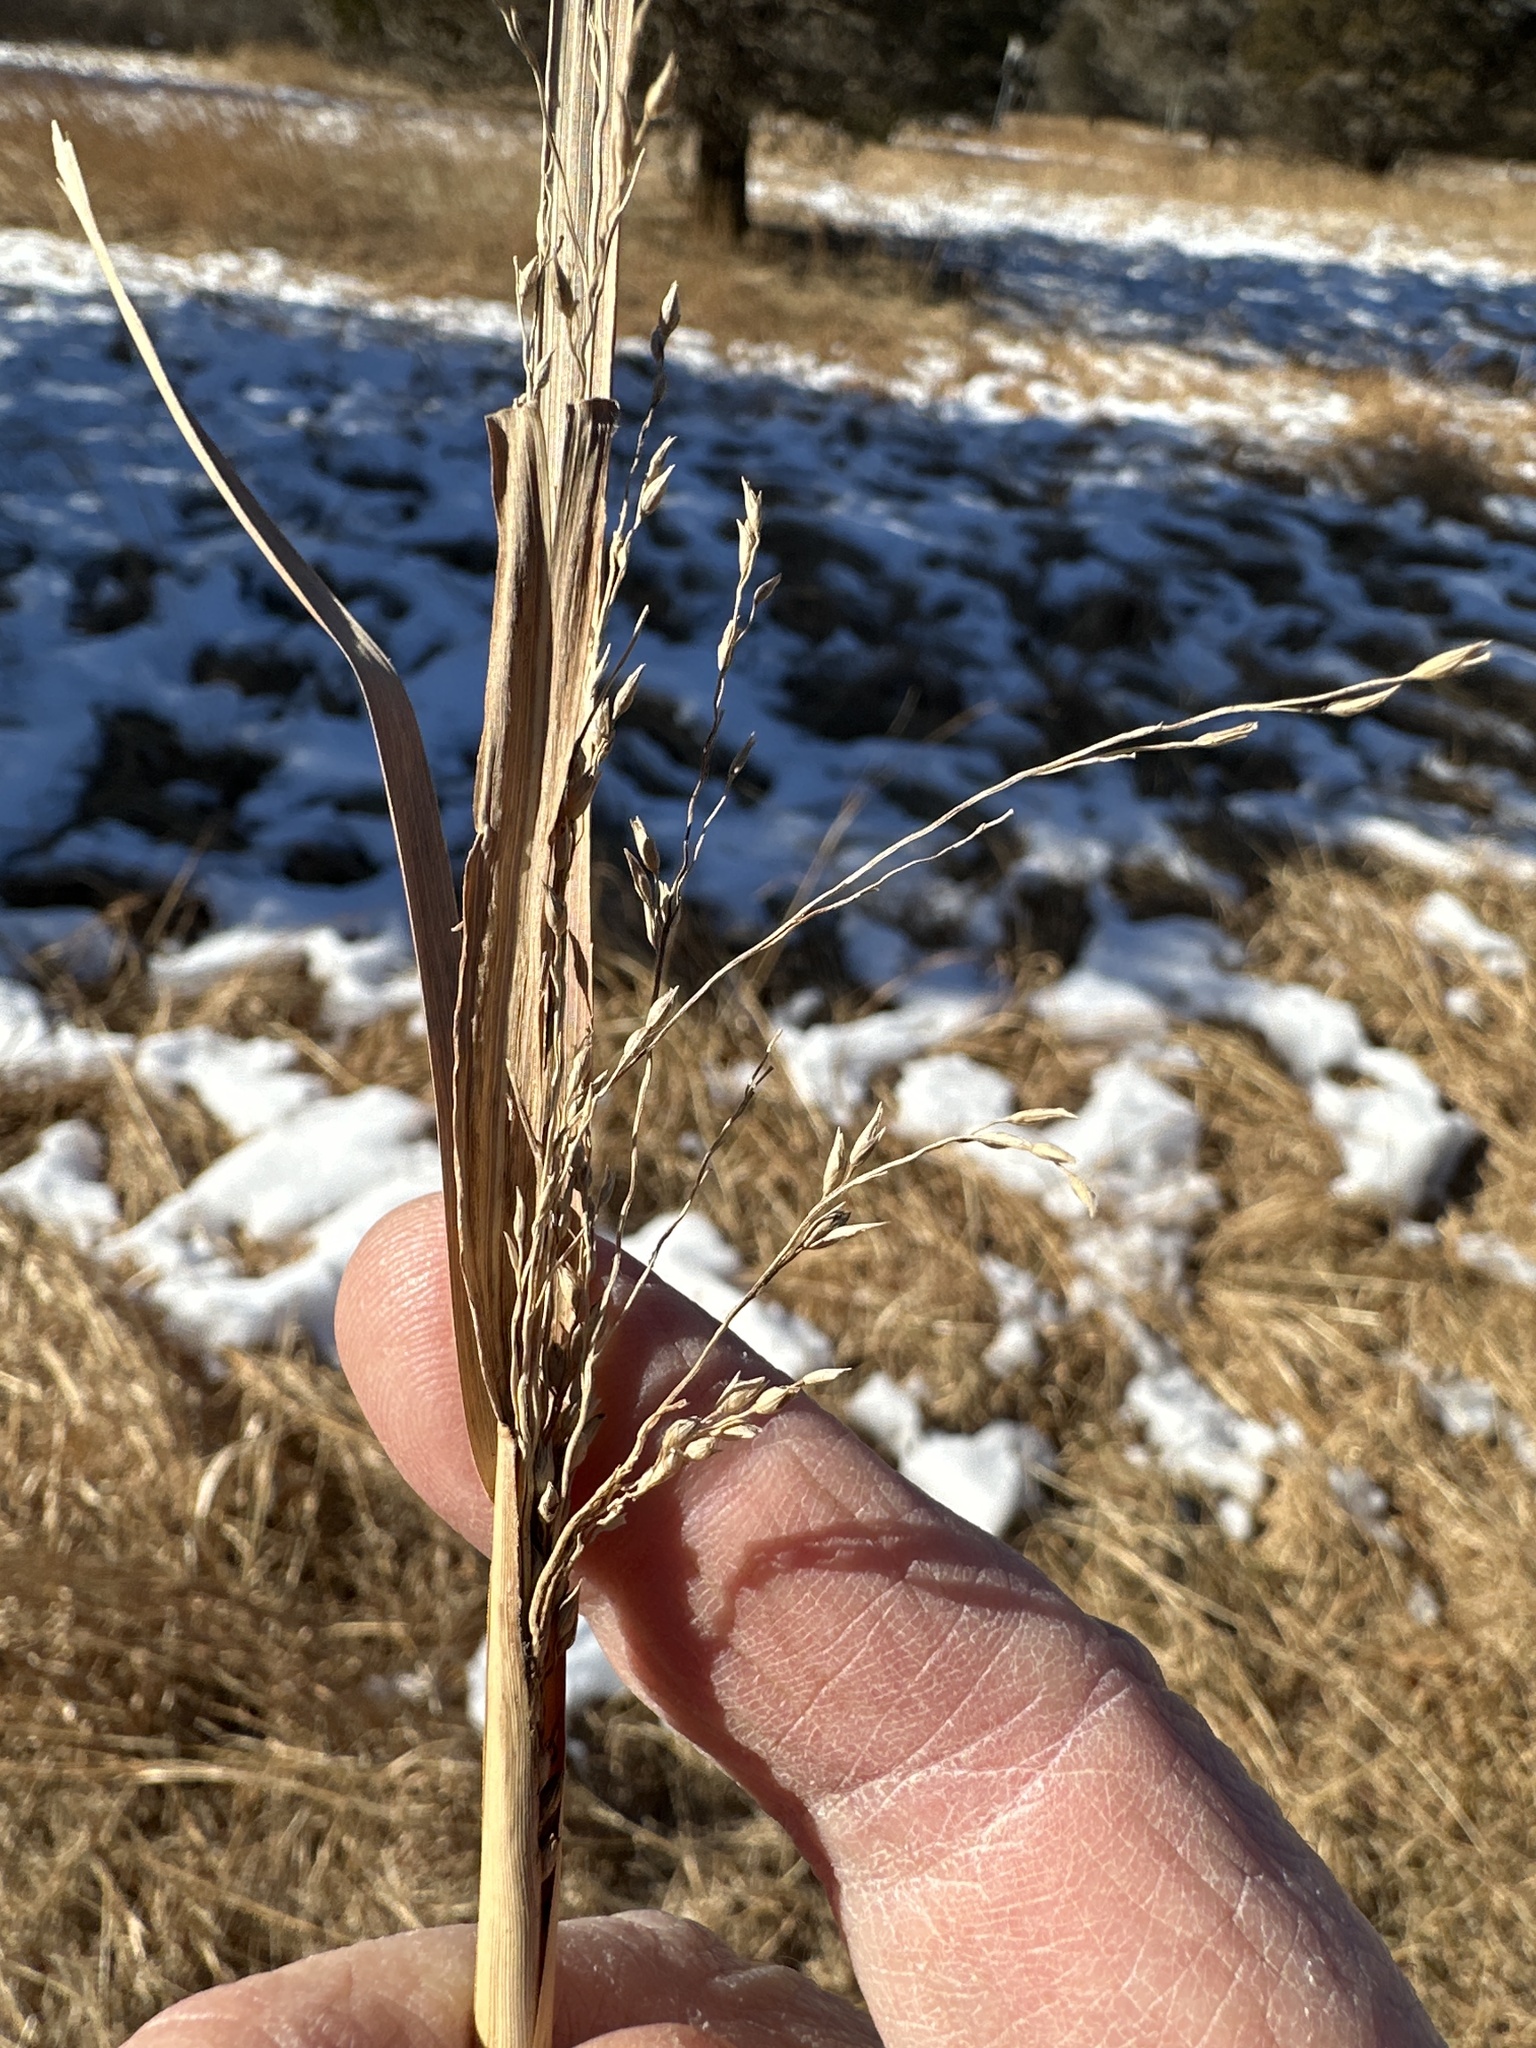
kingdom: Plantae
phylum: Tracheophyta
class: Liliopsida
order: Poales
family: Poaceae
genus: Panicum
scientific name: Panicum virgatum
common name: Switchgrass
